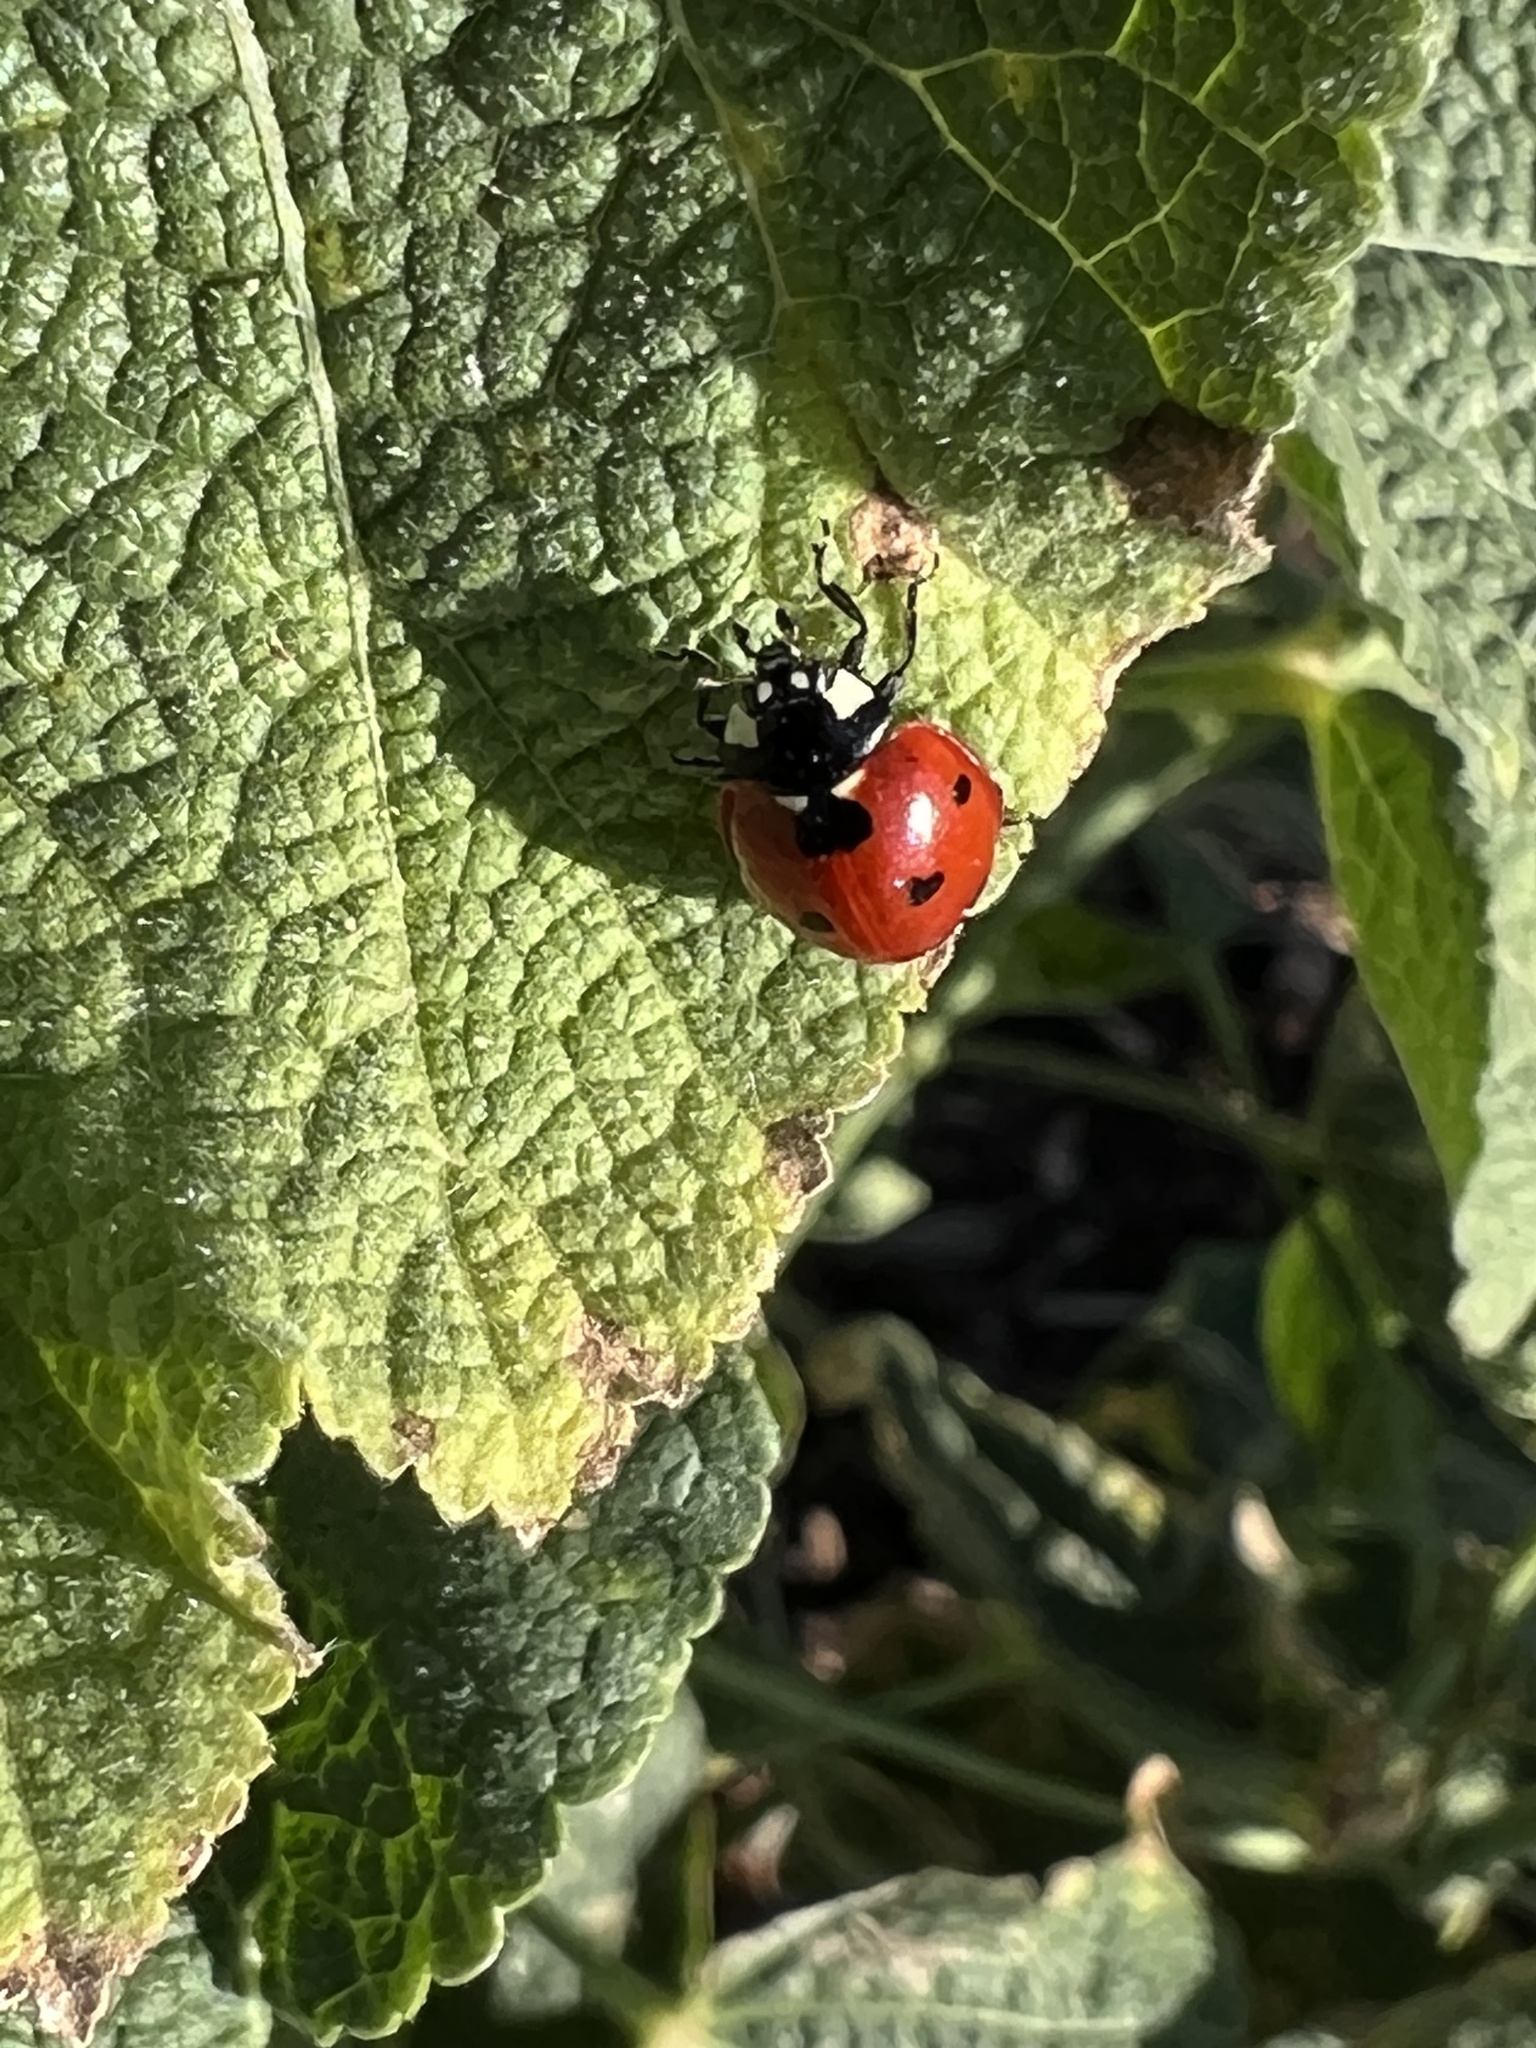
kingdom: Animalia
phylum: Arthropoda
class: Insecta
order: Coleoptera
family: Coccinellidae
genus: Coccinella
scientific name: Coccinella septempunctata
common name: Sevenspotted lady beetle
